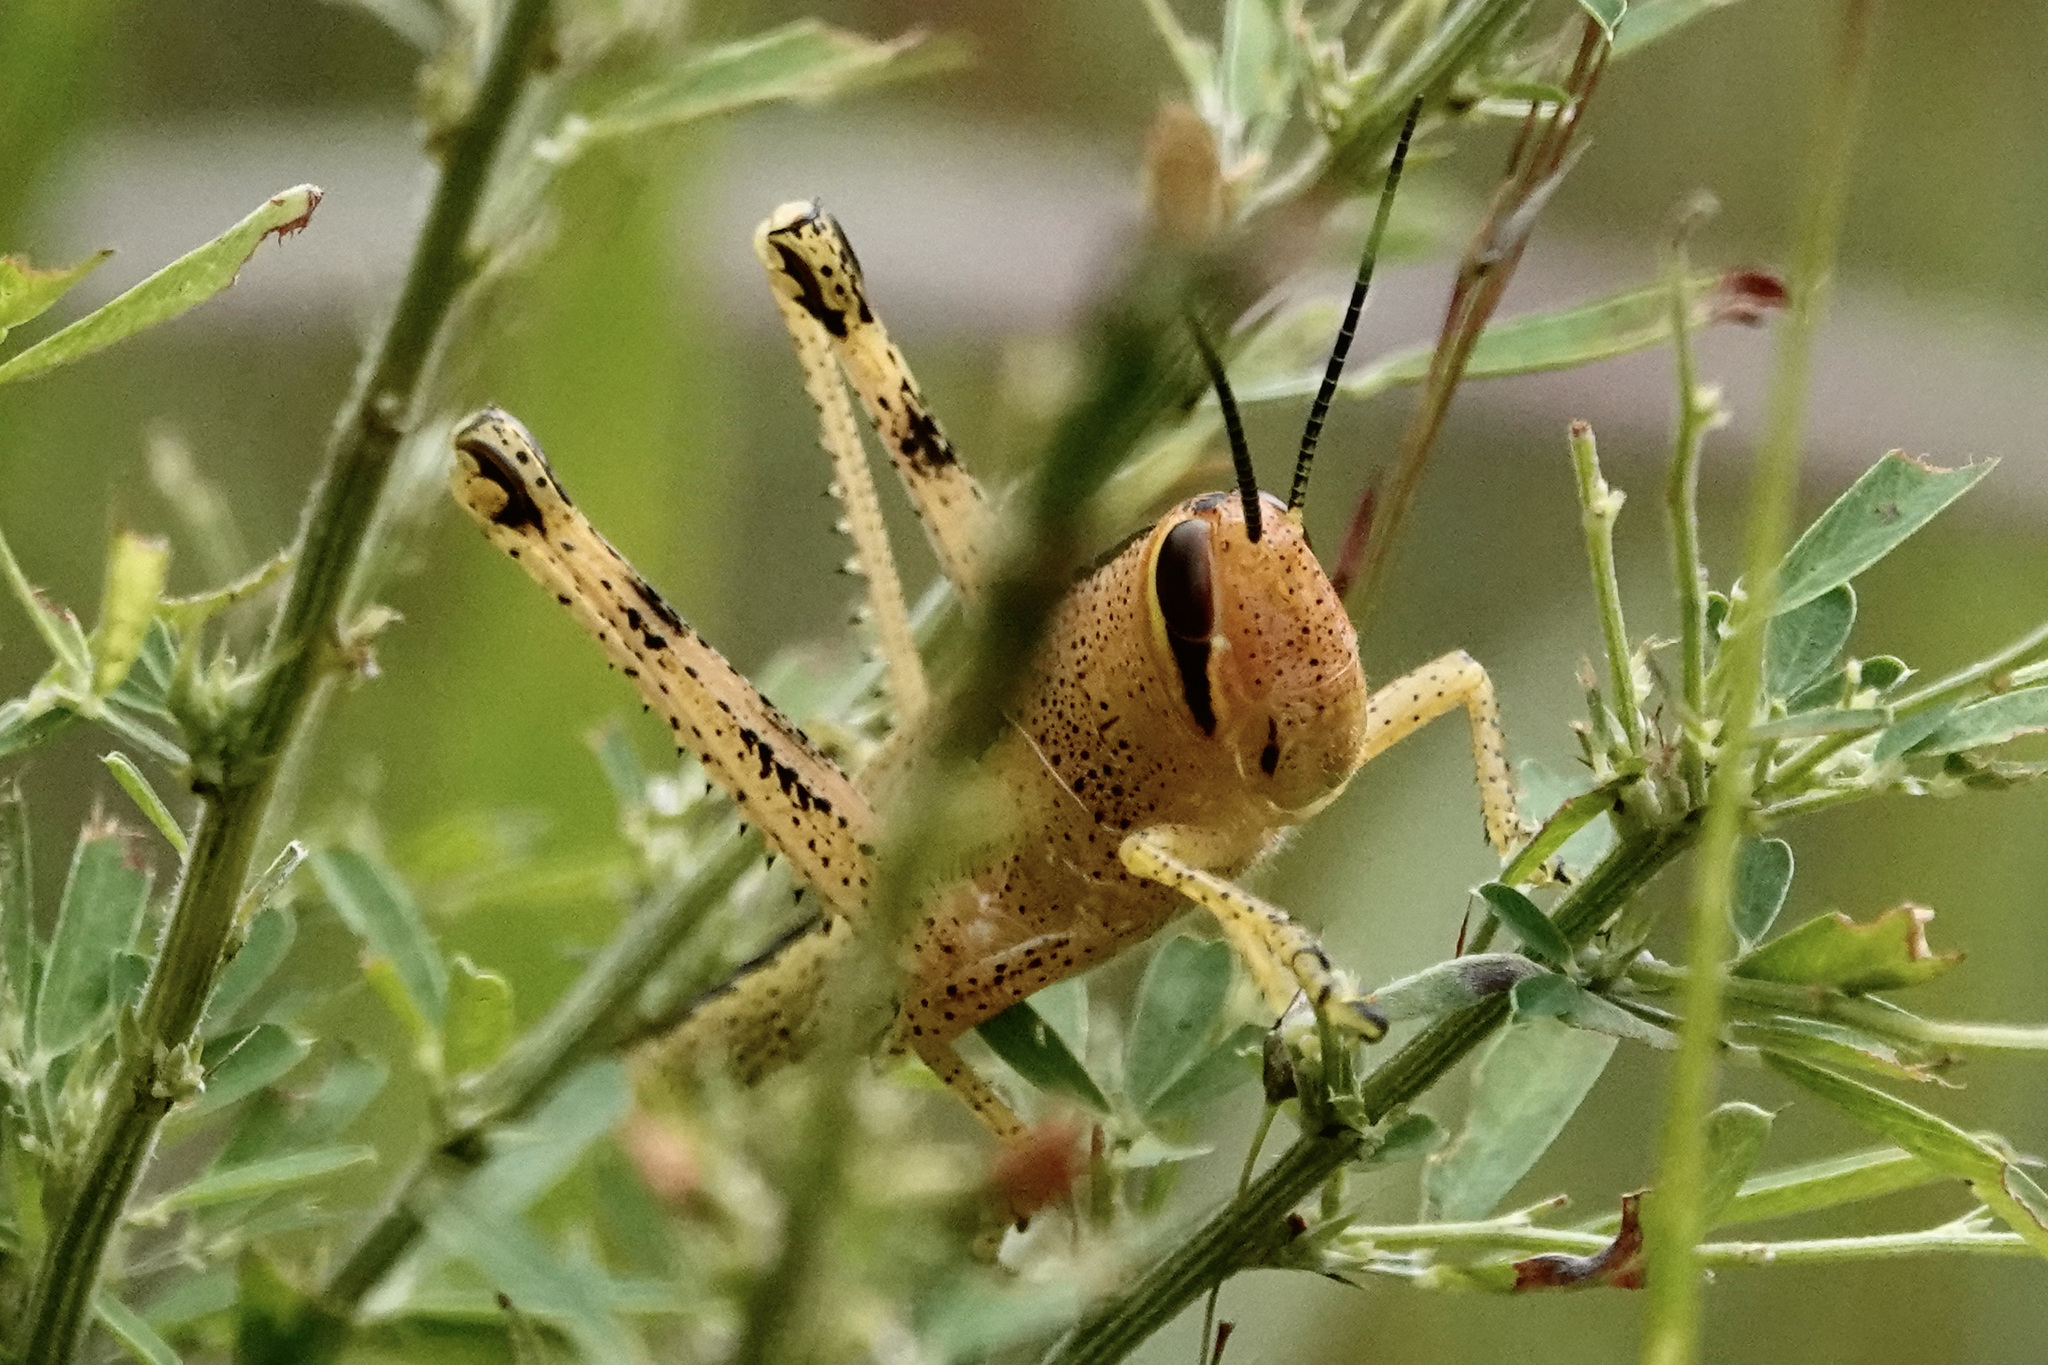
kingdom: Animalia
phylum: Arthropoda
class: Insecta
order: Orthoptera
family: Acrididae
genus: Schistocerca
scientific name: Schistocerca americana
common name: American bird locust
